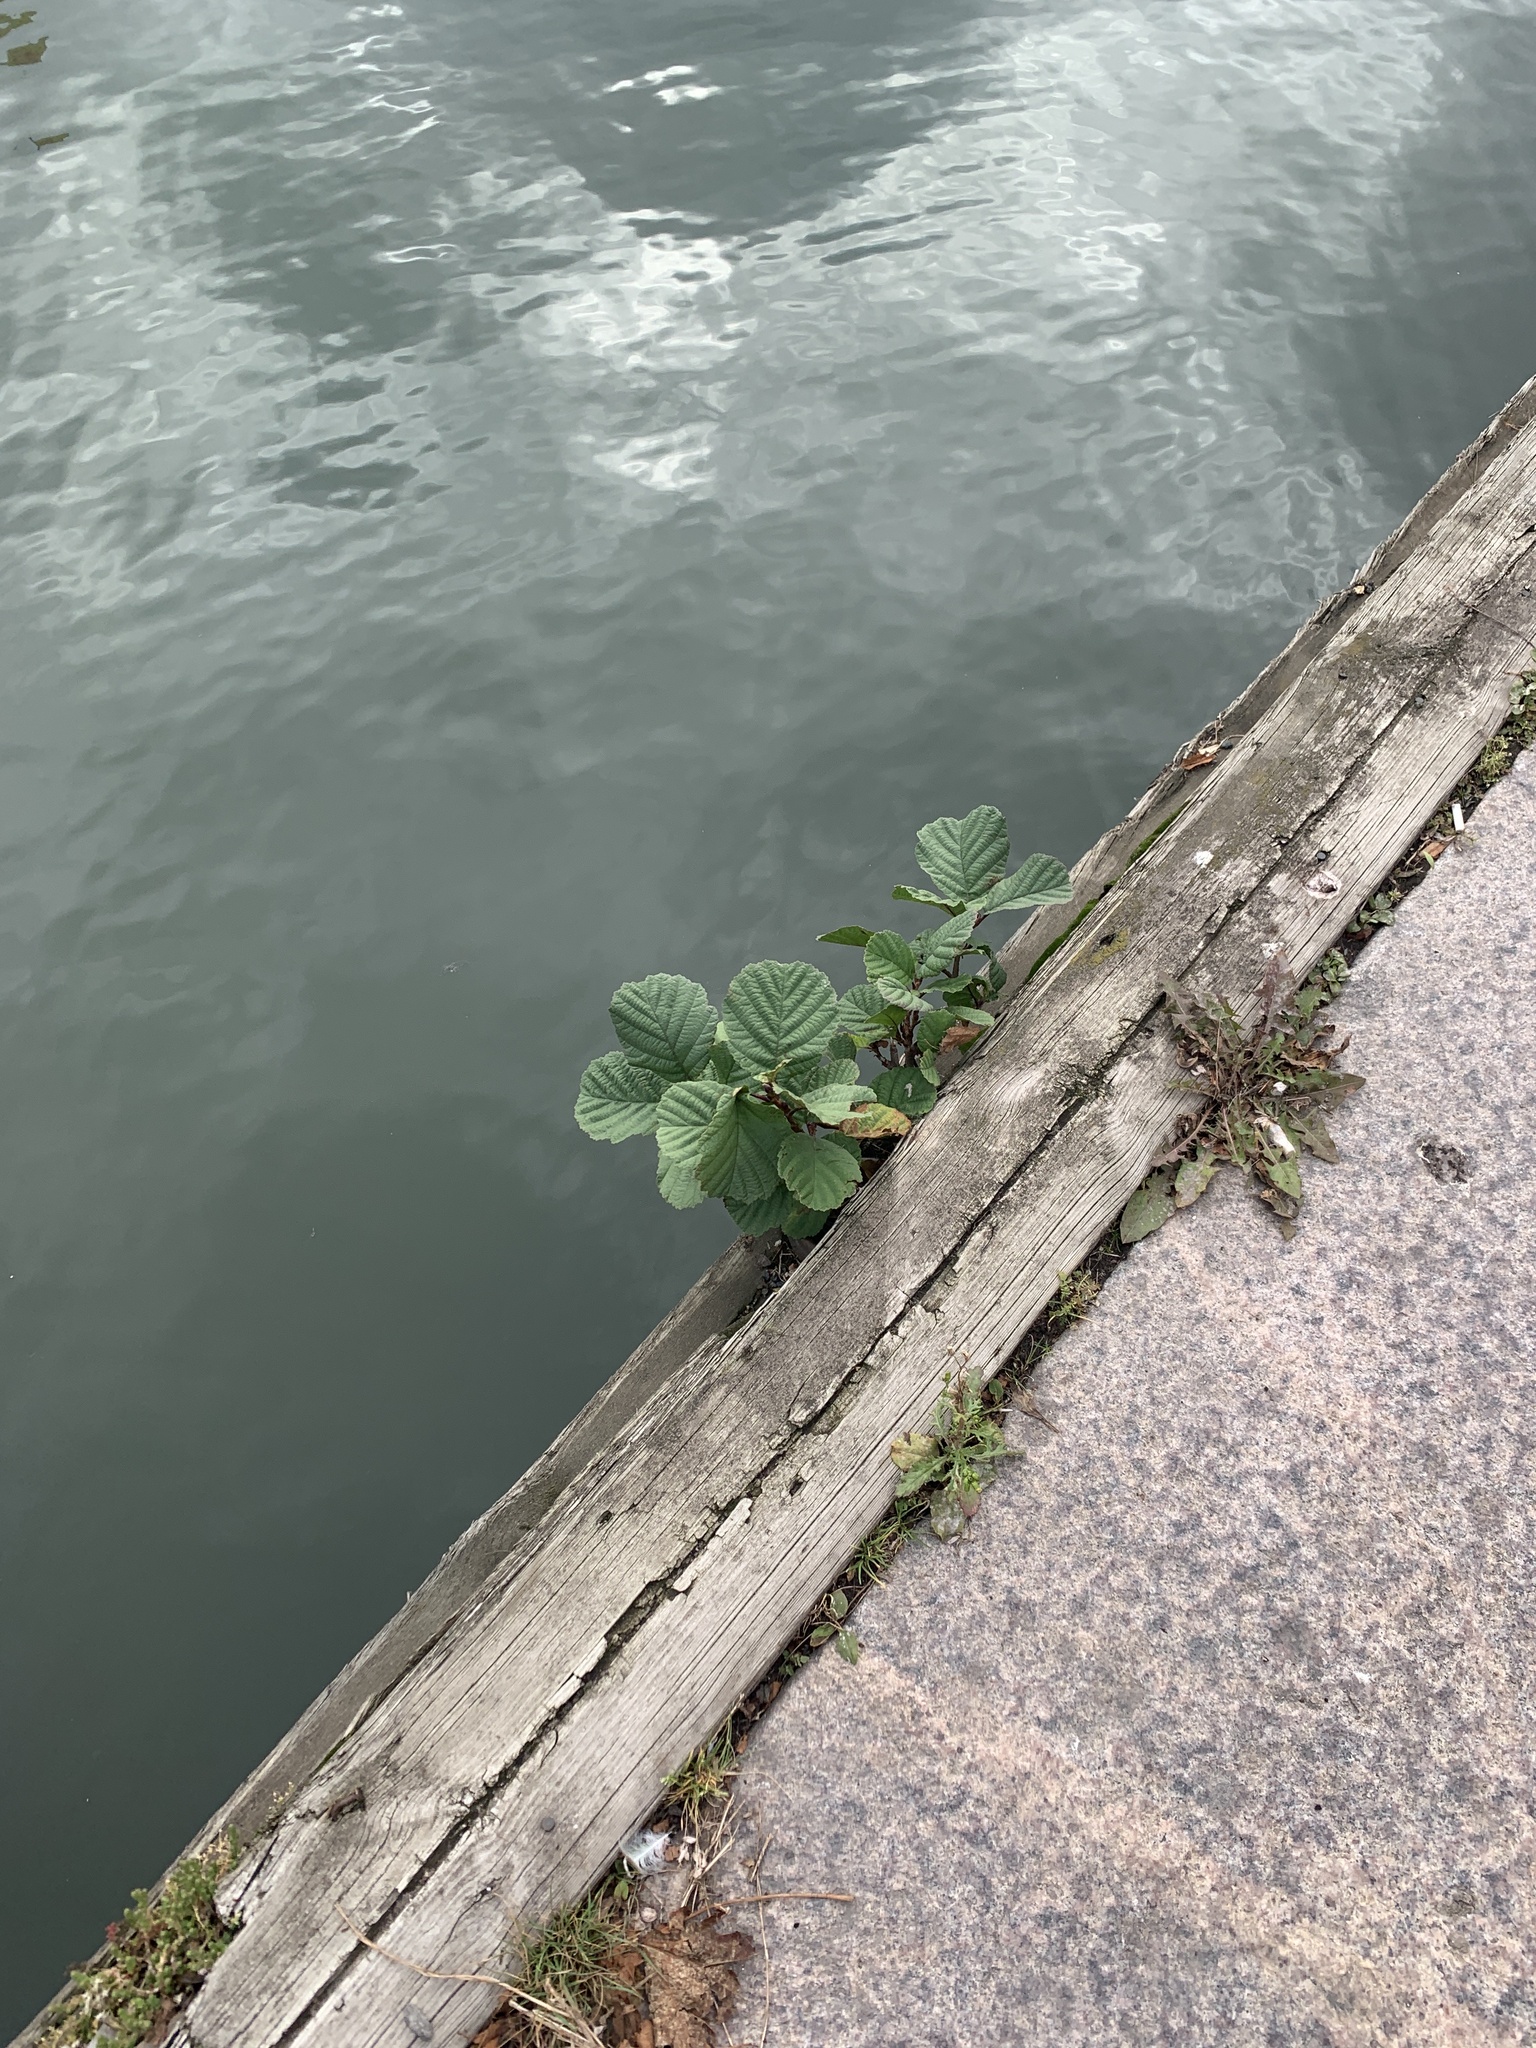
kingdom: Plantae
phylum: Tracheophyta
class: Magnoliopsida
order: Fagales
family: Betulaceae
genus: Alnus
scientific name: Alnus glutinosa
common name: Black alder
